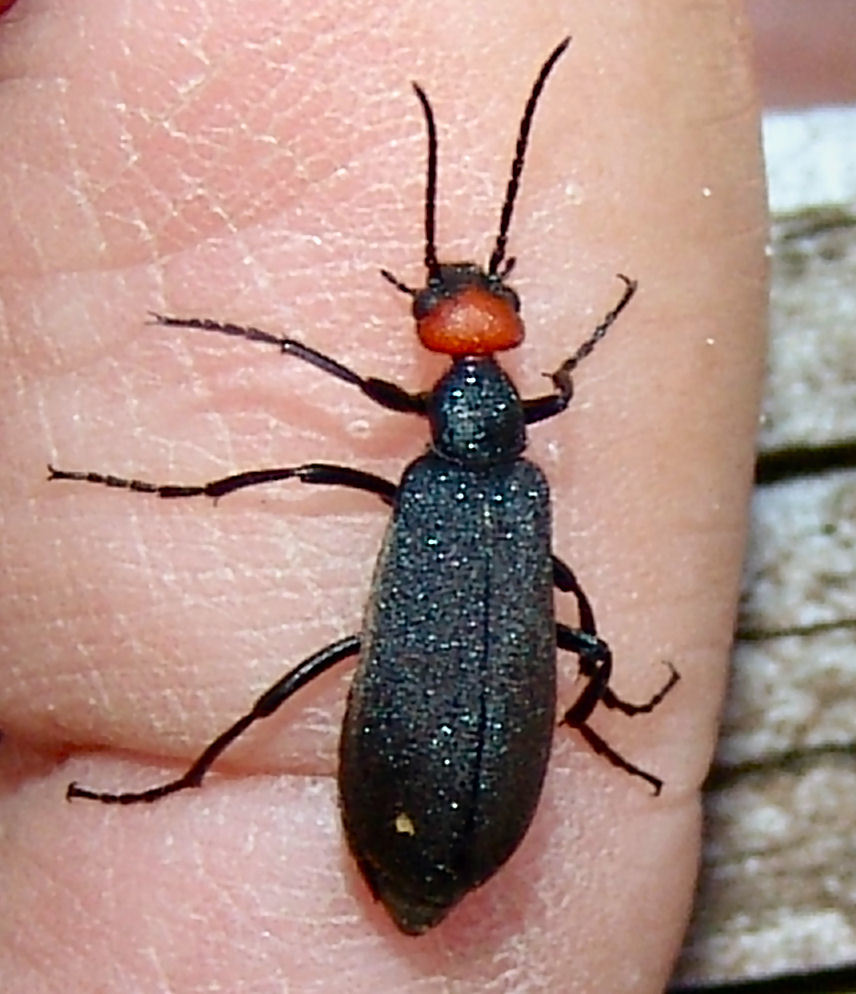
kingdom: Animalia
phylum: Arthropoda
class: Insecta
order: Coleoptera
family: Meloidae
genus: Epicauta
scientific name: Epicauta atrata
